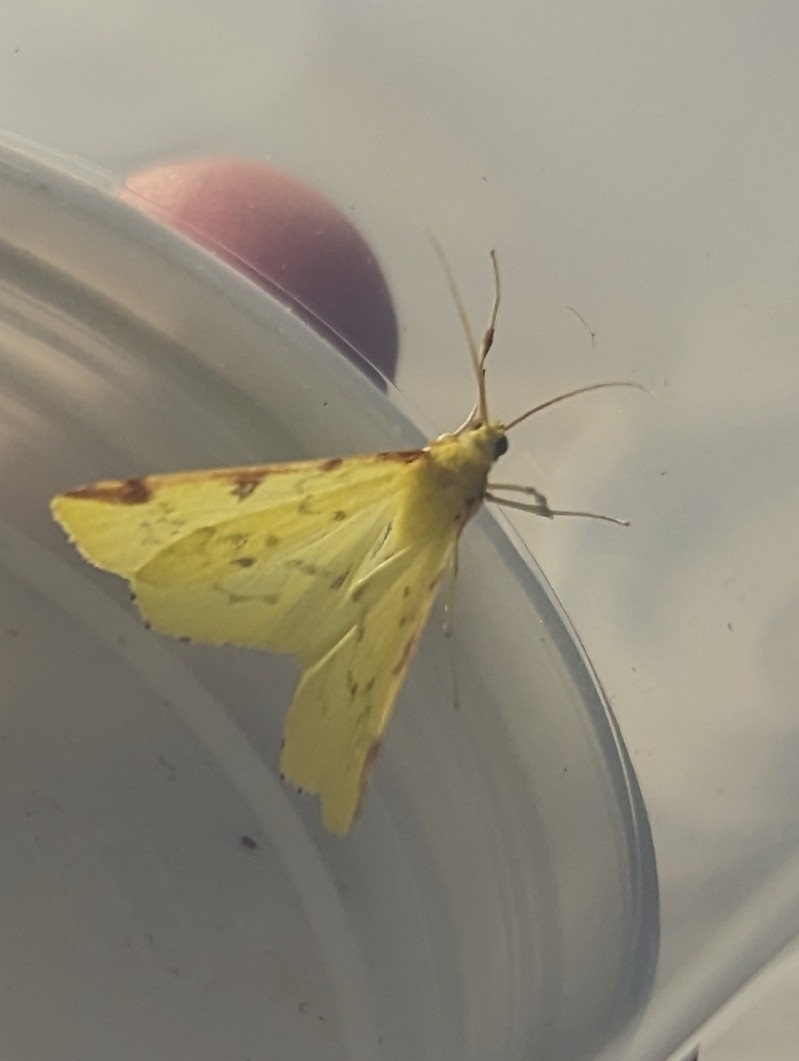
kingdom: Animalia
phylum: Arthropoda
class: Insecta
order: Lepidoptera
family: Geometridae
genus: Opisthograptis
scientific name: Opisthograptis luteolata
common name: Brimstone moth
